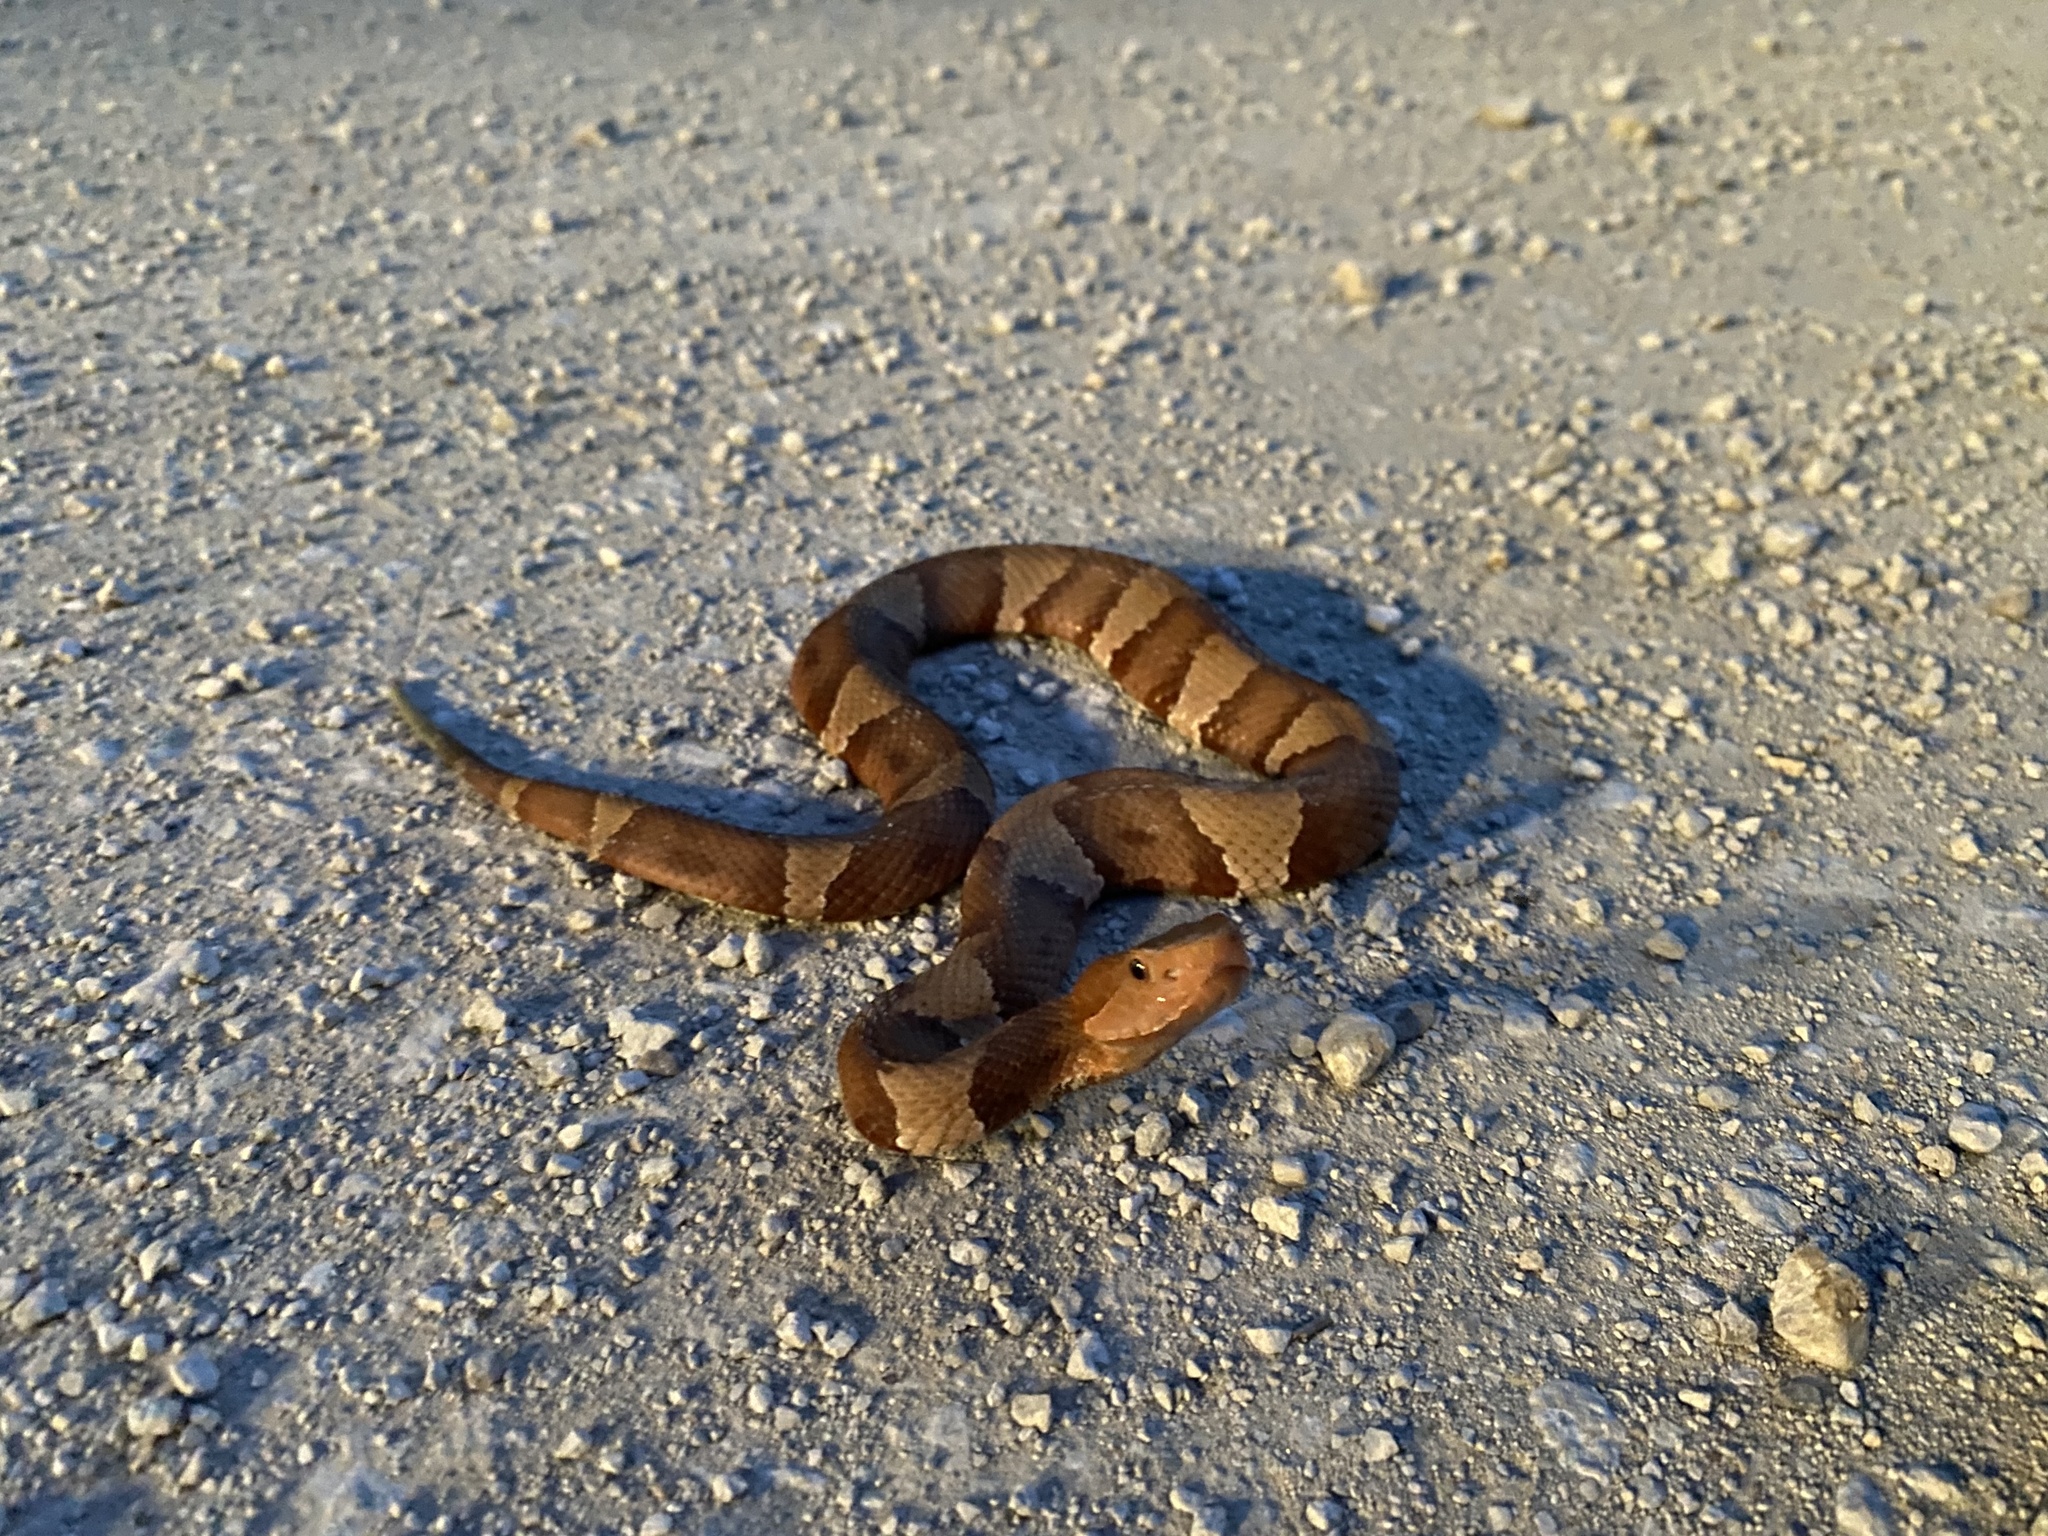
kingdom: Animalia
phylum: Chordata
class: Squamata
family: Viperidae
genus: Agkistrodon
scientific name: Agkistrodon laticinctus
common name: Broad-banded copperhead
